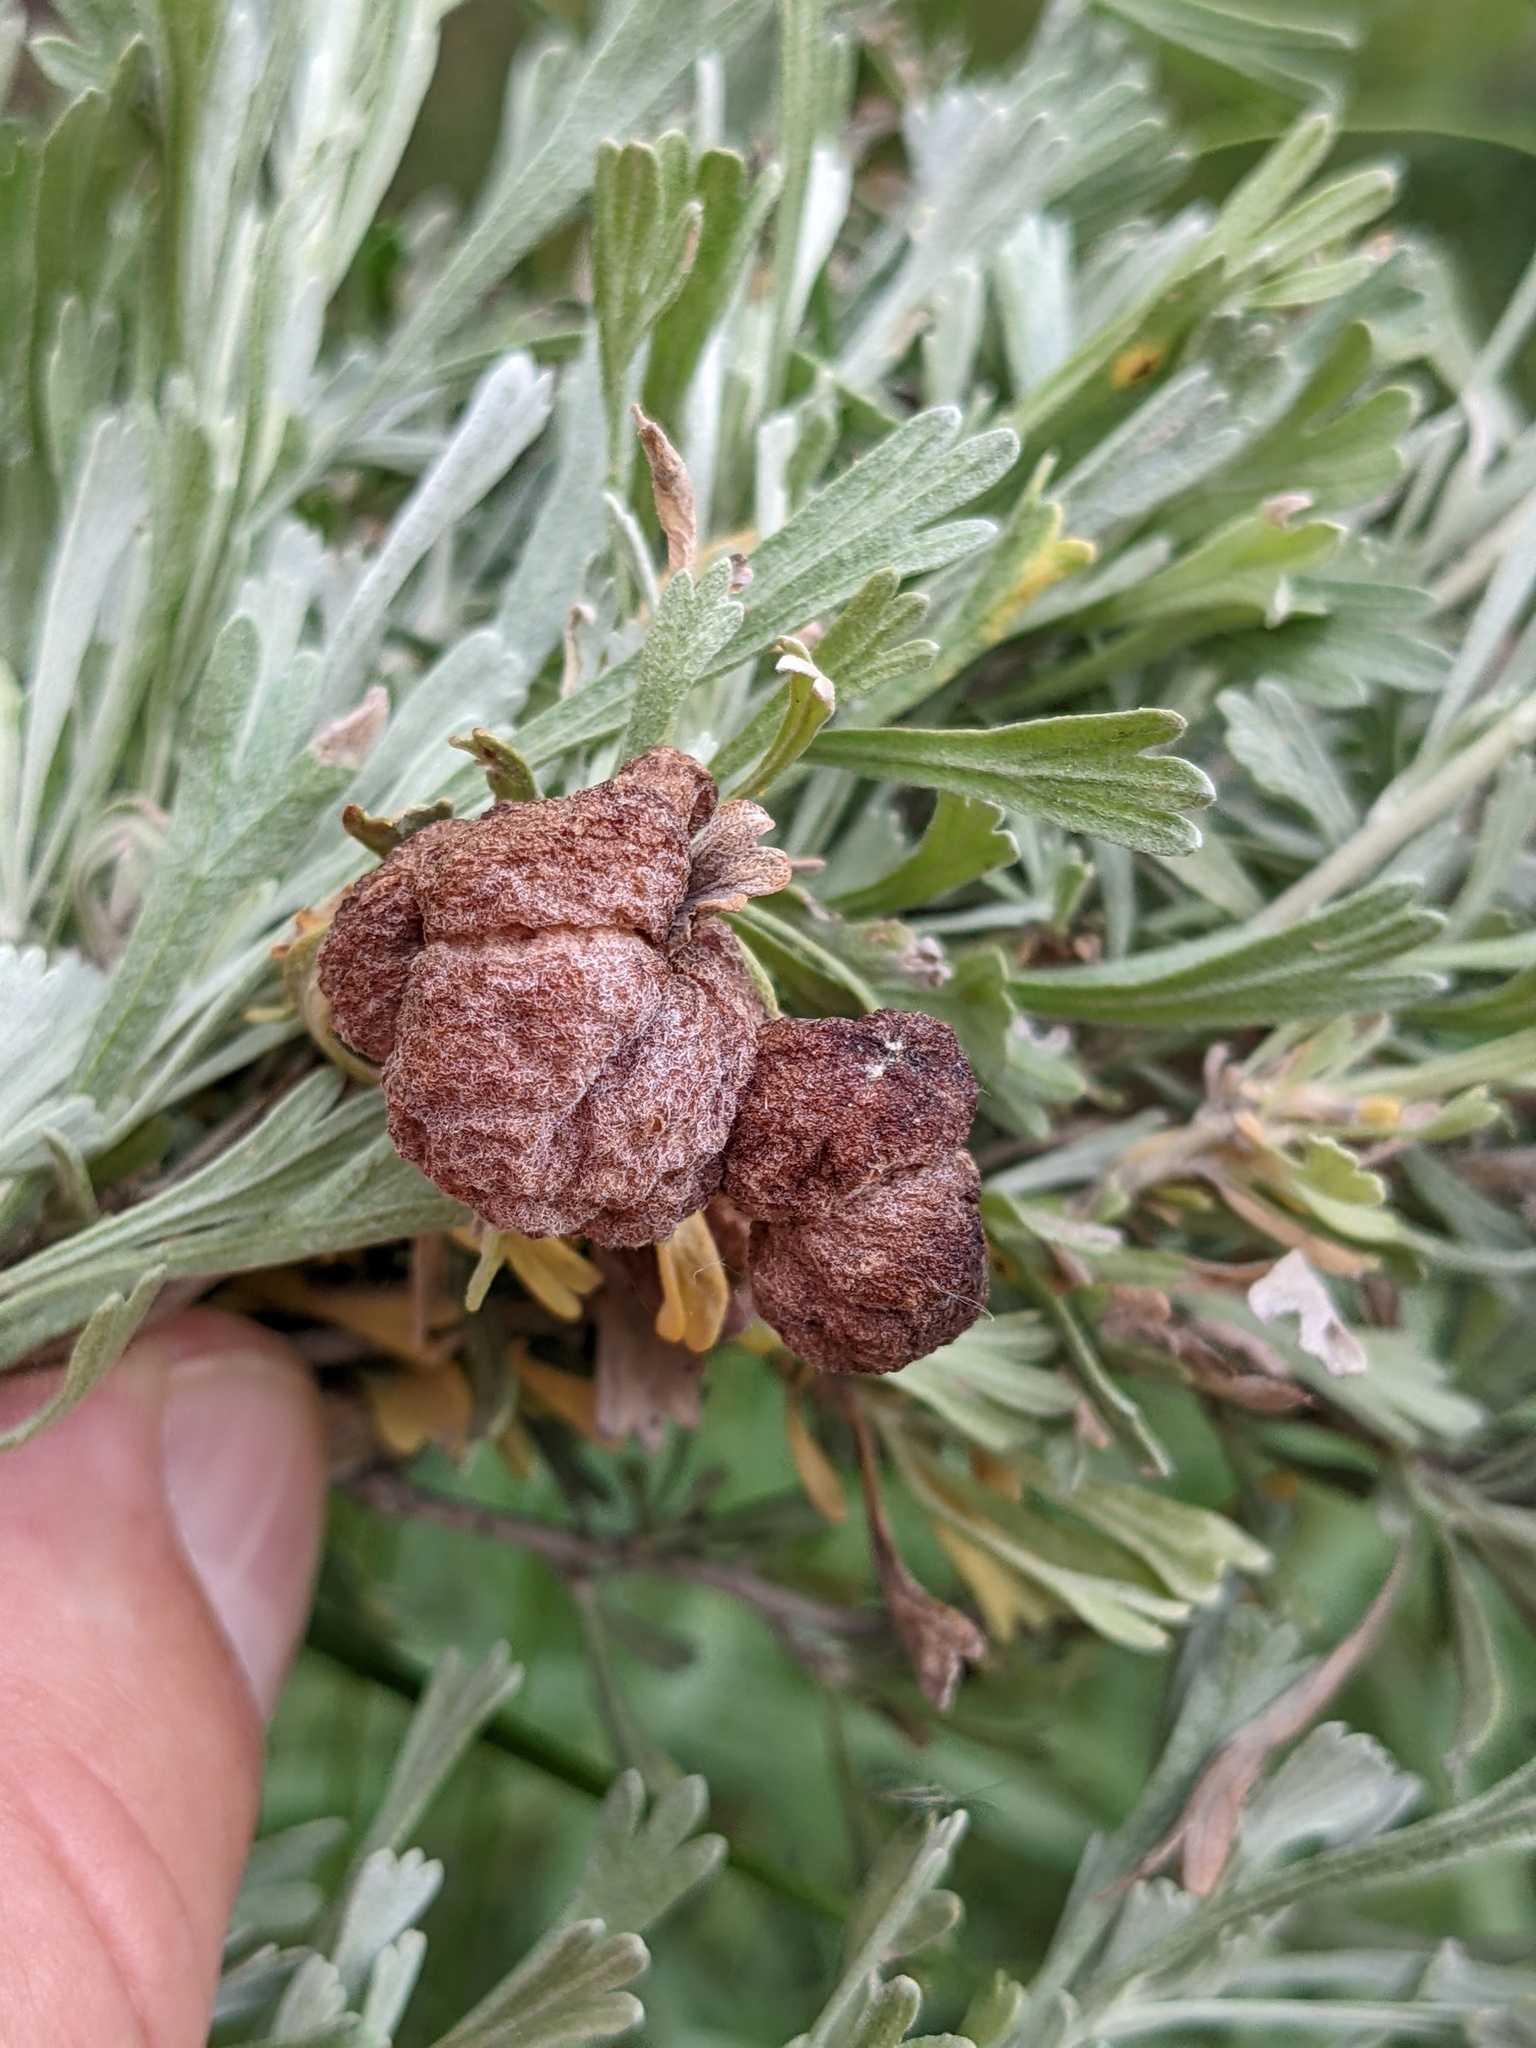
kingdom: Animalia
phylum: Arthropoda
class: Insecta
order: Diptera
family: Cecidomyiidae
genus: Rhopalomyia
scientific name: Rhopalomyia pomum
